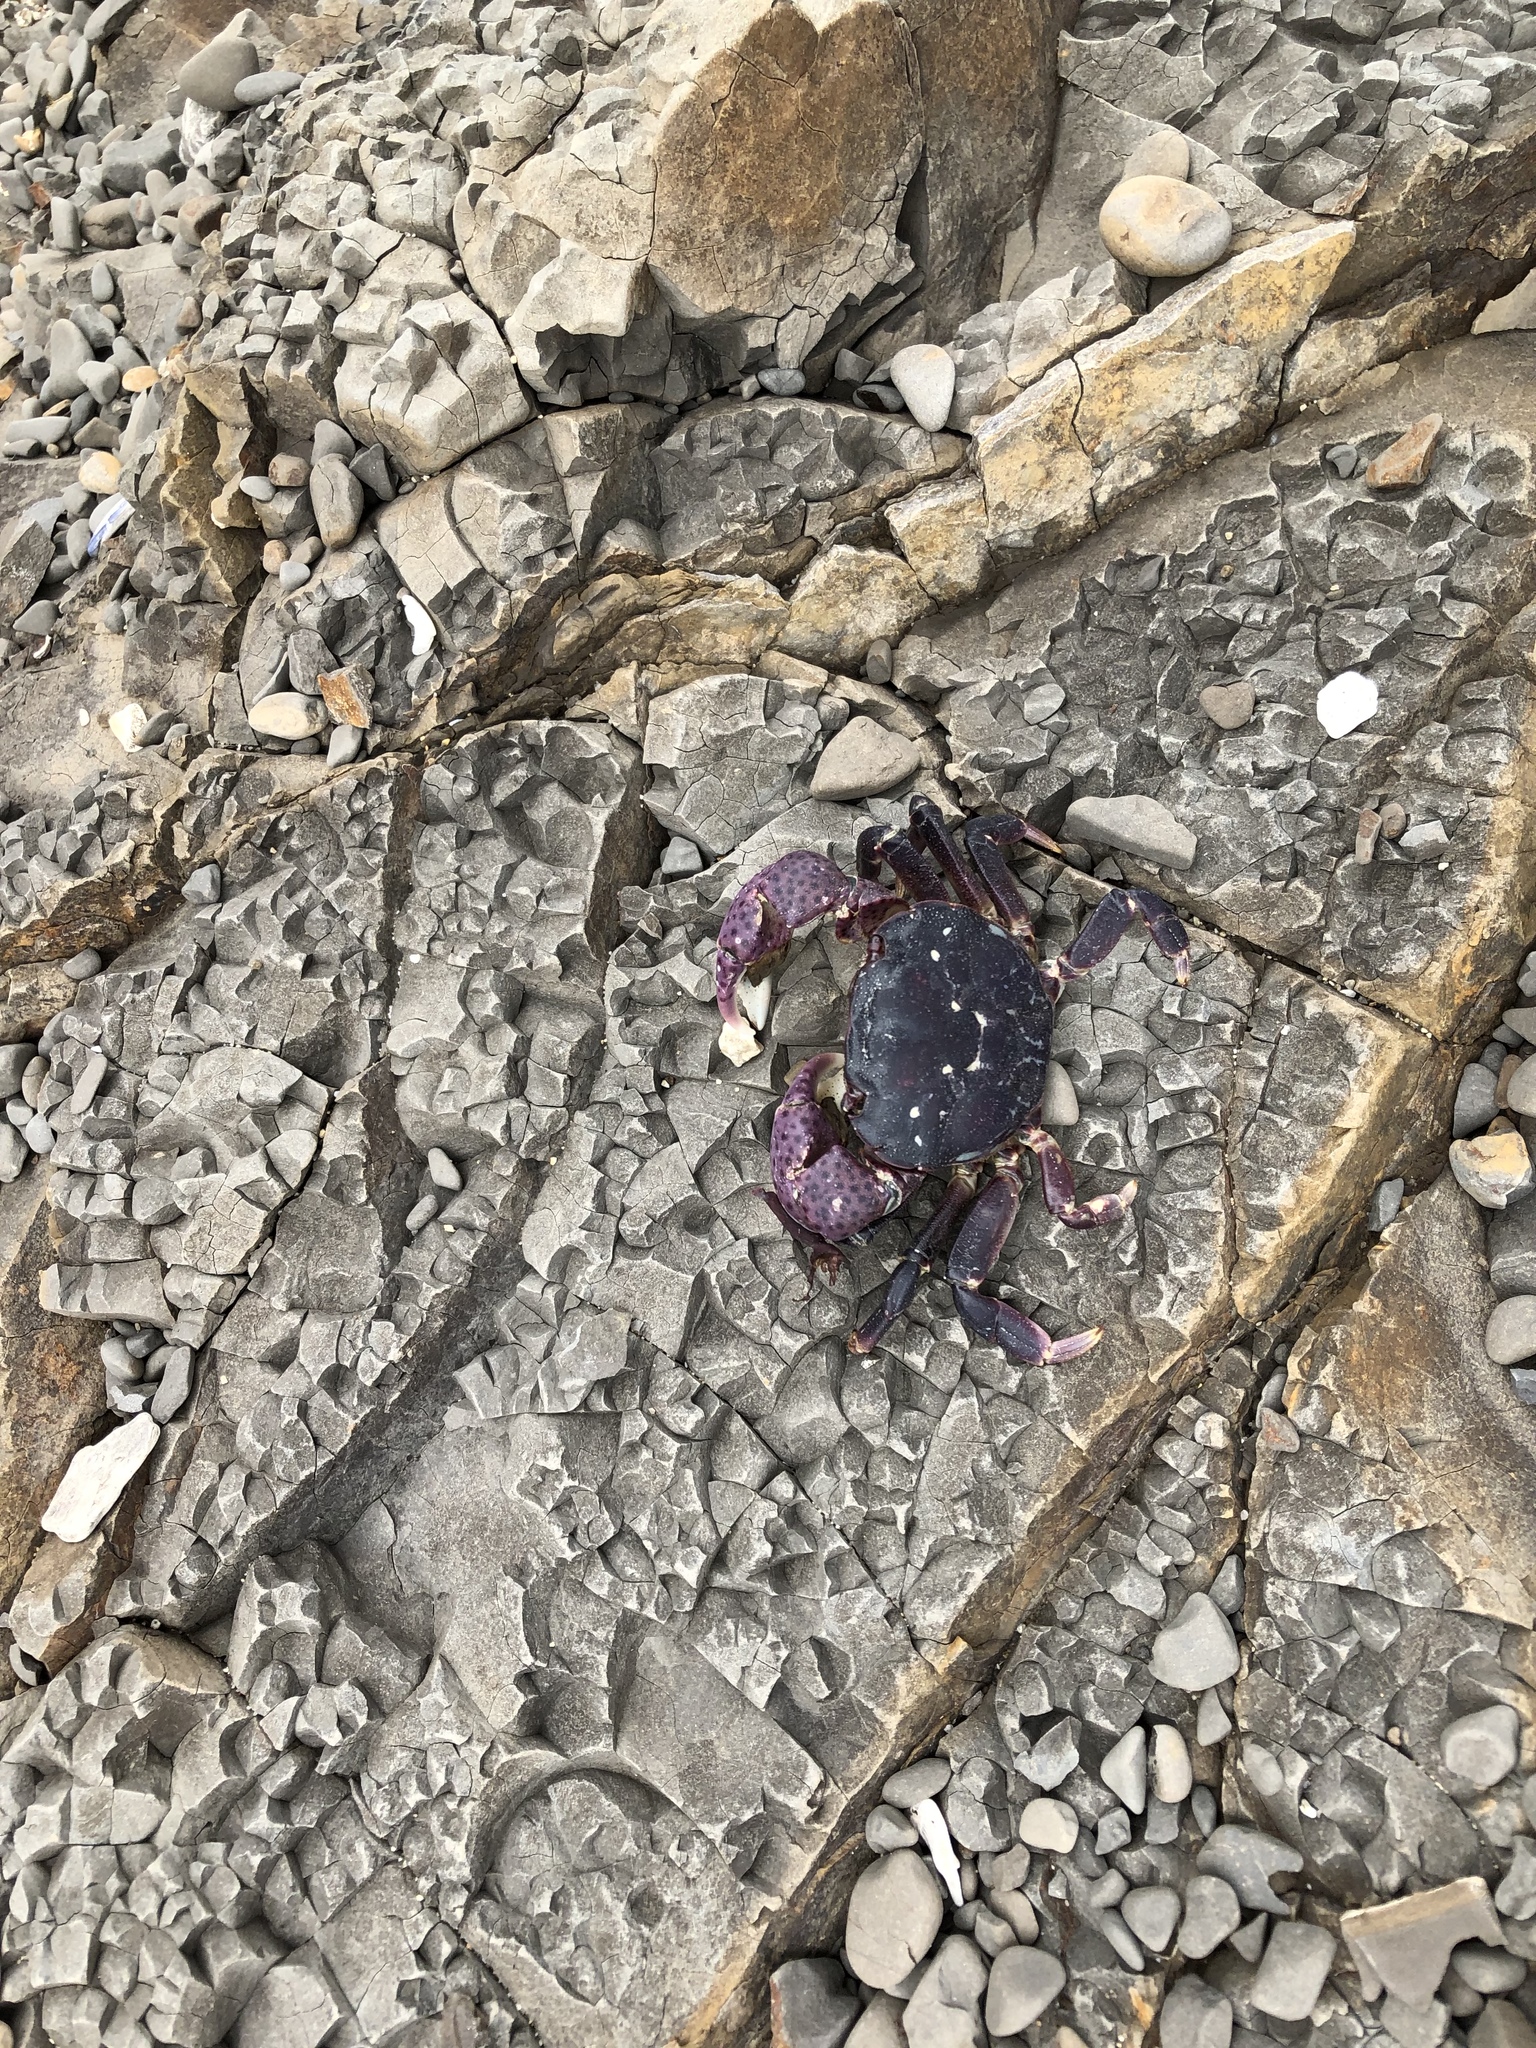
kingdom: Animalia
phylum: Arthropoda
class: Malacostraca
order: Decapoda
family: Varunidae
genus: Hemigrapsus
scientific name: Hemigrapsus nudus
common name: Purple shore crab
